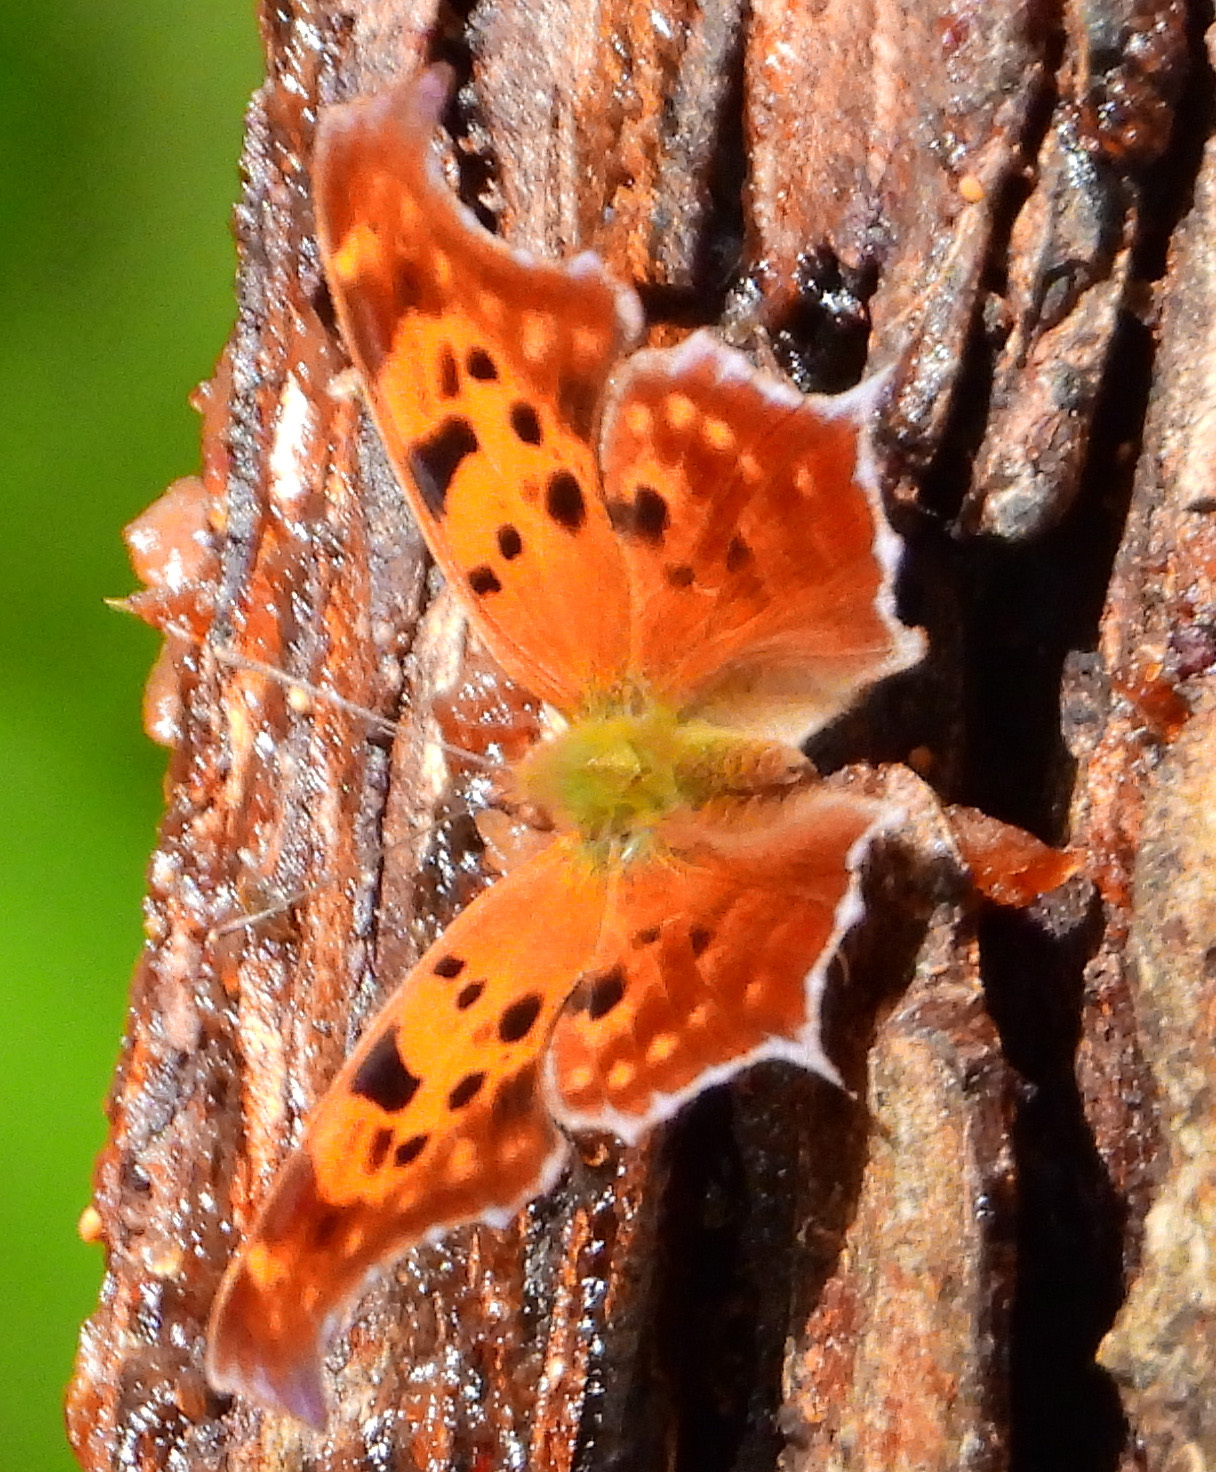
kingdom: Animalia
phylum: Arthropoda
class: Insecta
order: Lepidoptera
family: Nymphalidae
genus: Polygonia
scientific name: Polygonia interrogationis
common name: Question mark
